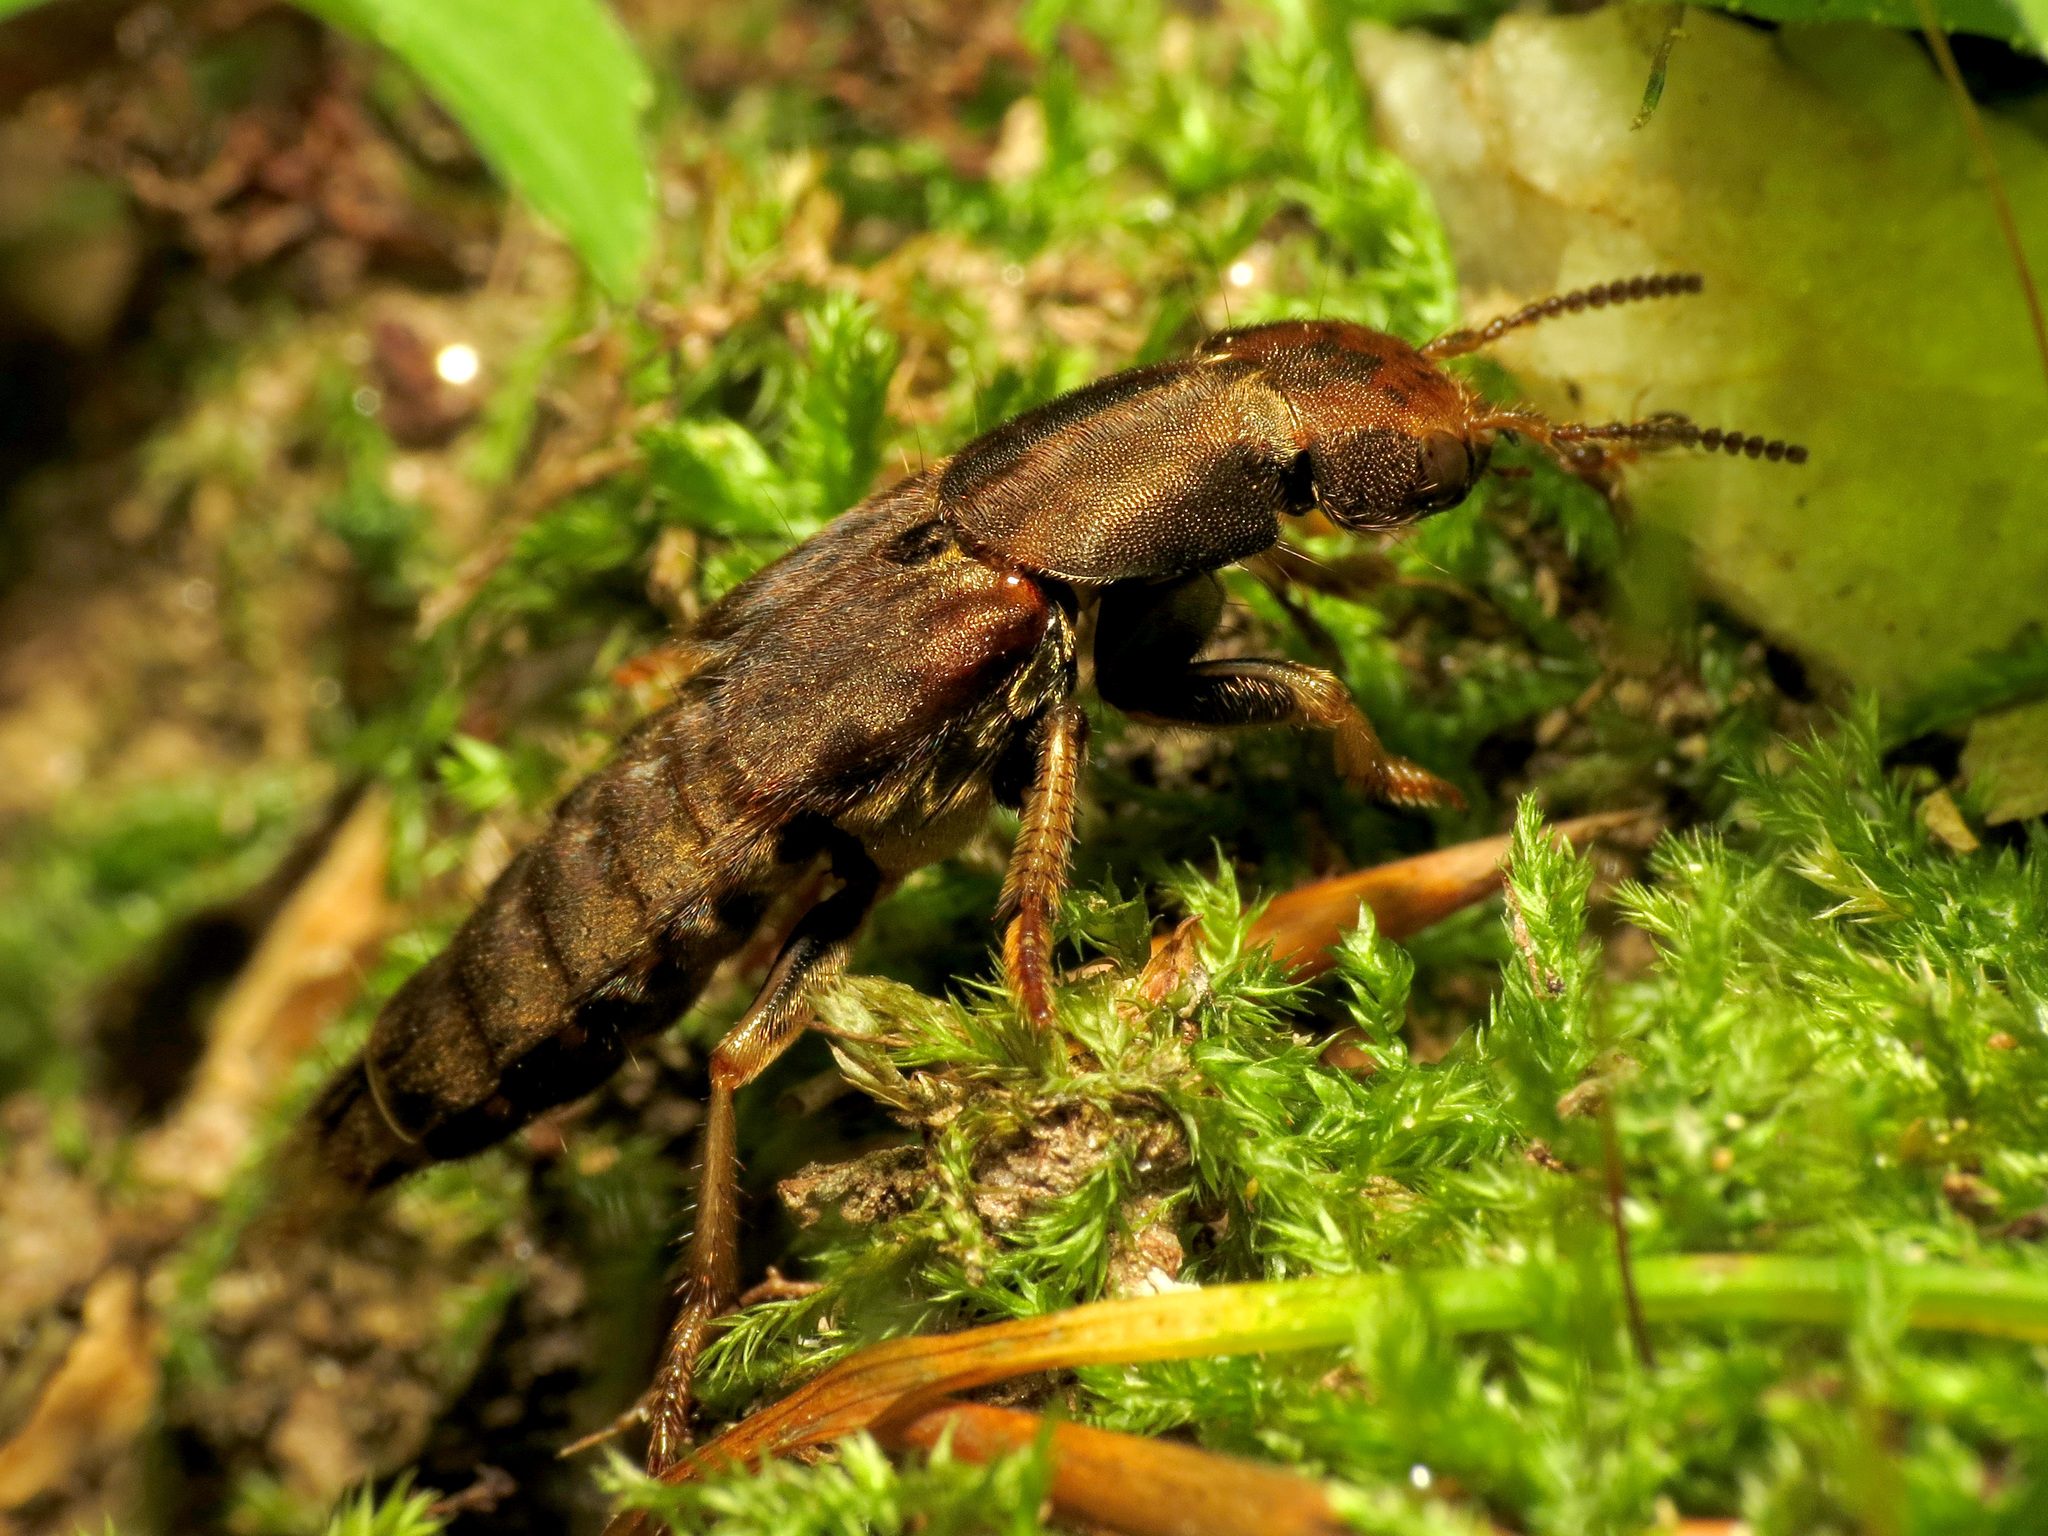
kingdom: Animalia
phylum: Arthropoda
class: Insecta
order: Coleoptera
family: Staphylinidae
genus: Platydracus
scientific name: Platydracus maculosus
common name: Brown rove beetle
